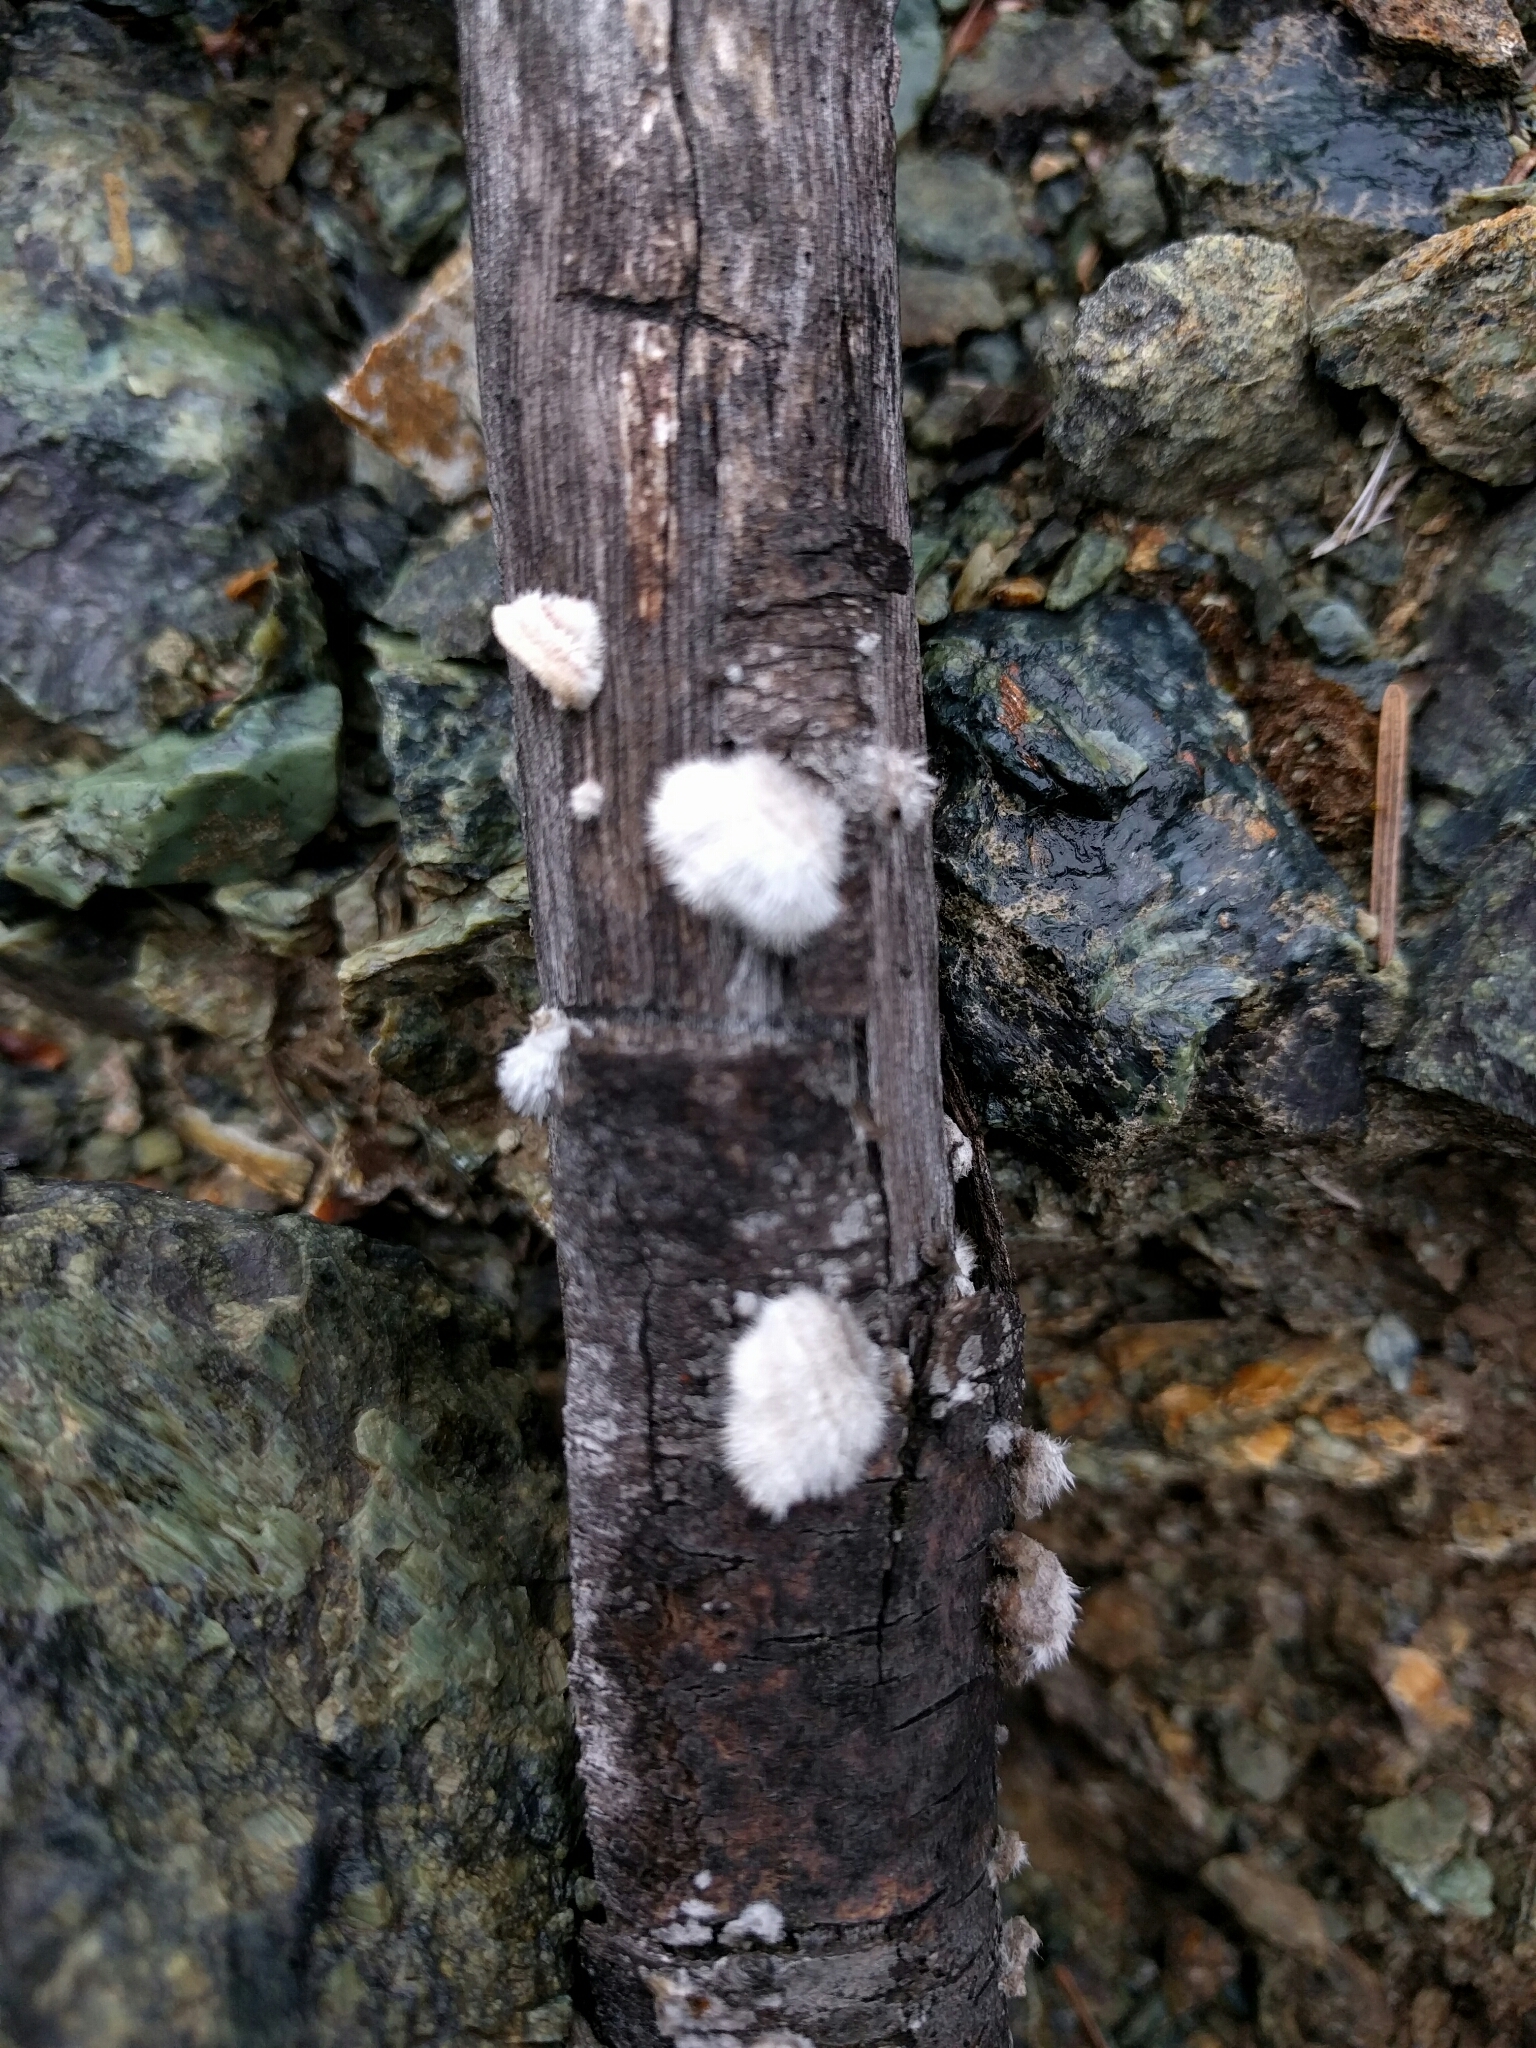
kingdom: Fungi
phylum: Basidiomycota
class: Agaricomycetes
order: Agaricales
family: Schizophyllaceae
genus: Schizophyllum
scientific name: Schizophyllum commune
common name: Common porecrust
